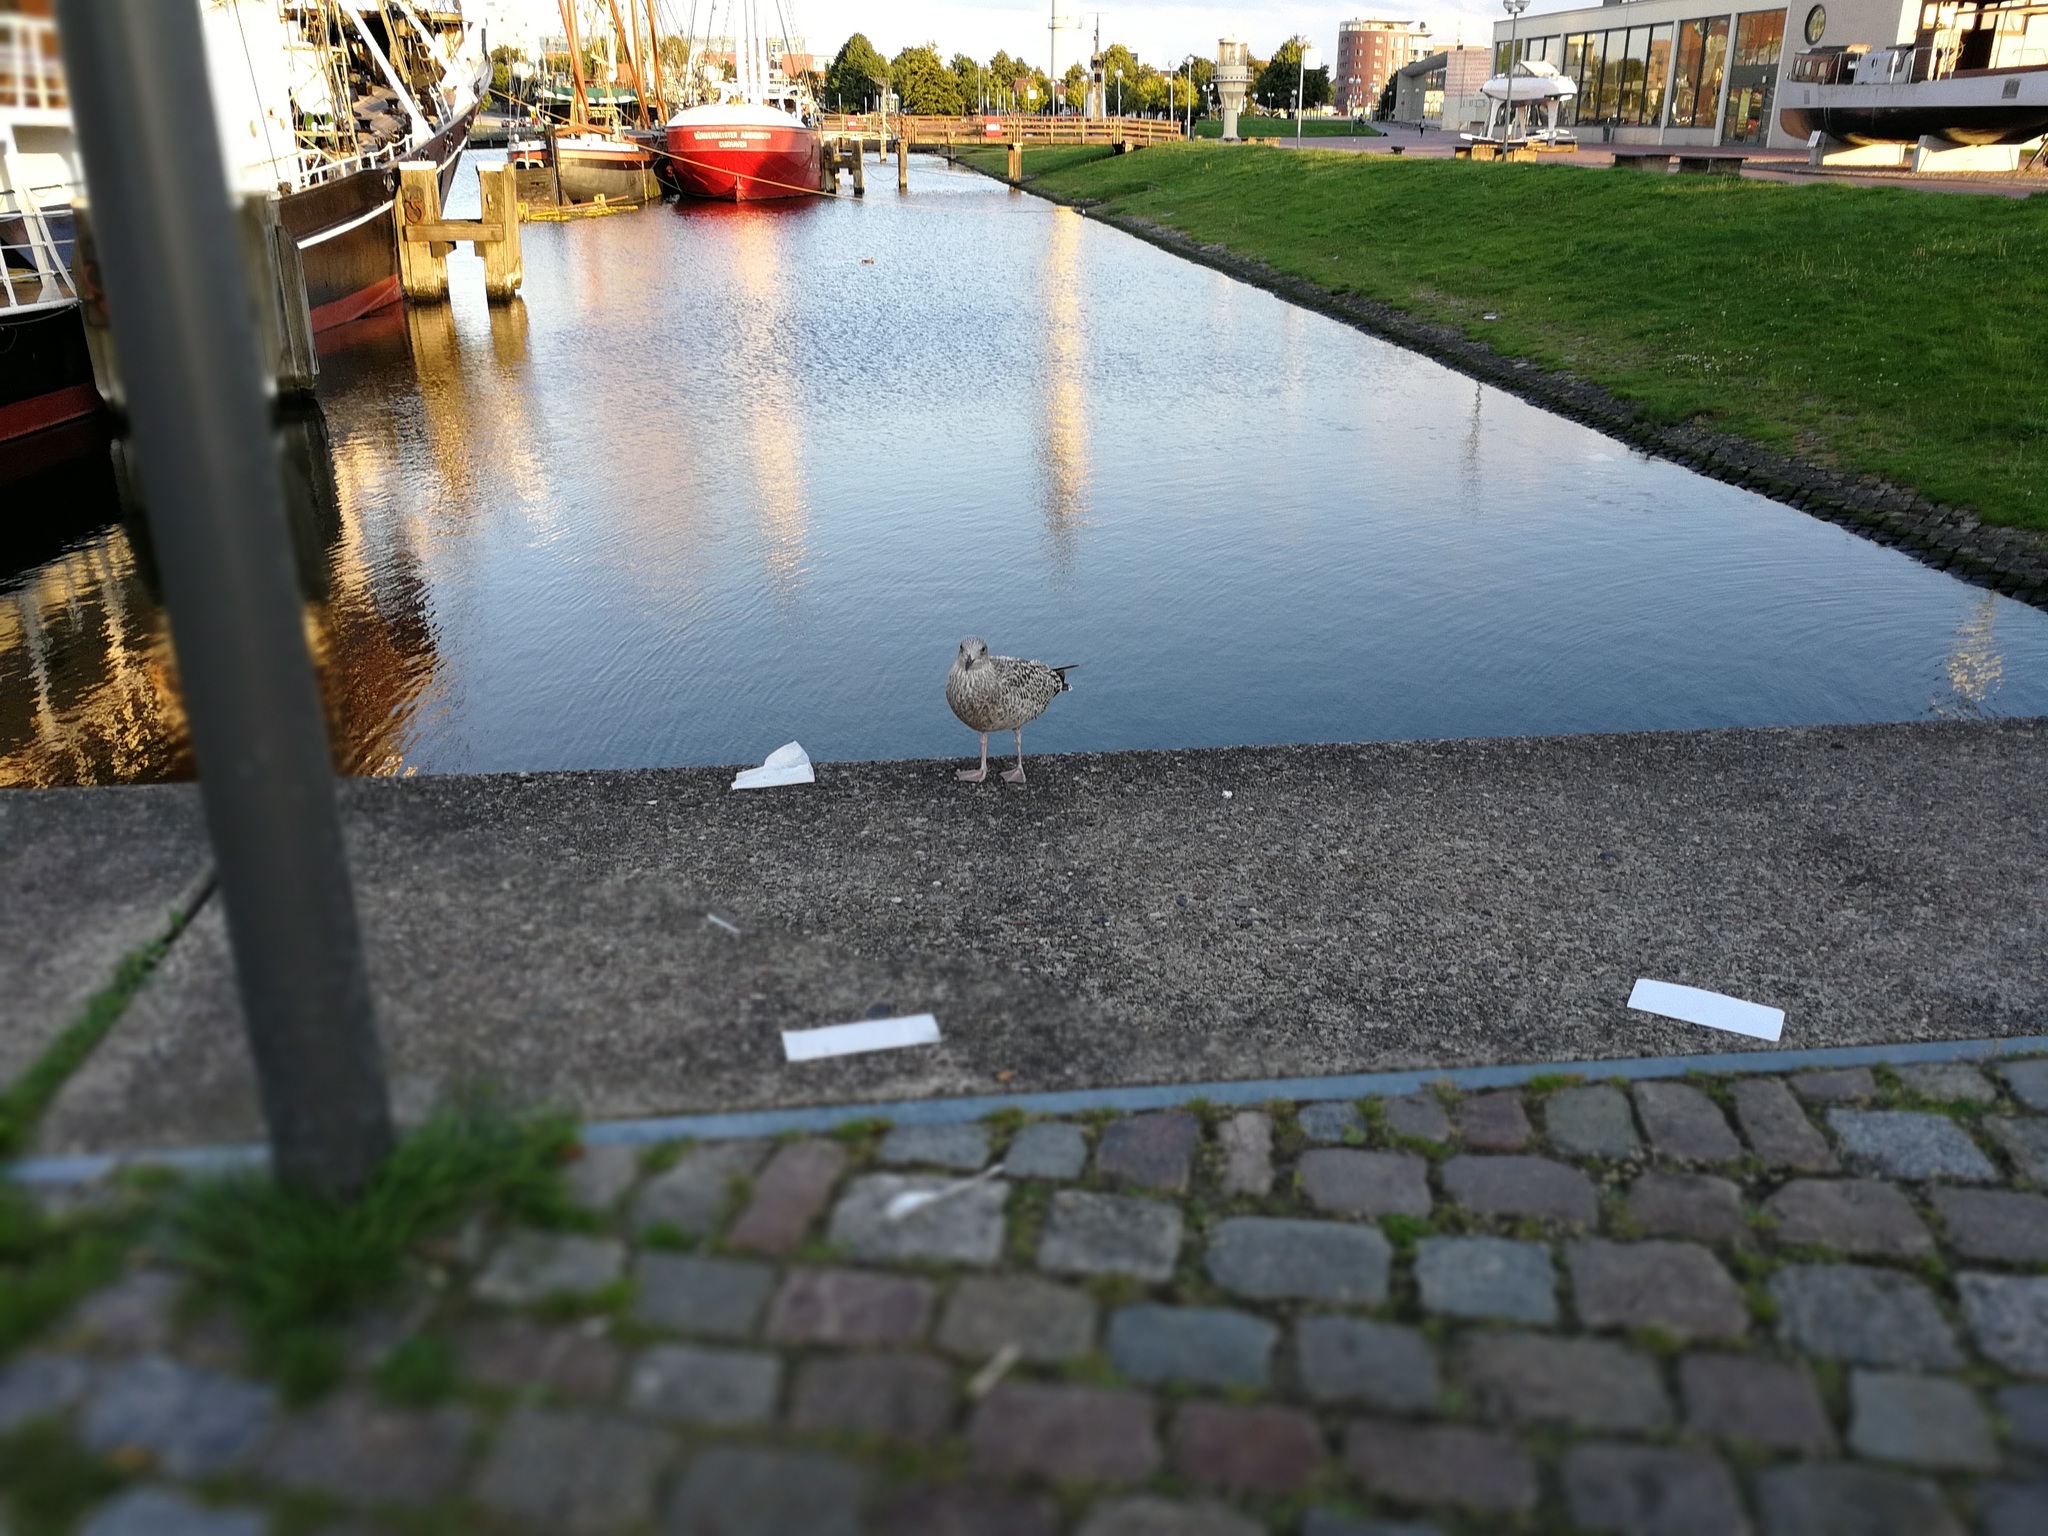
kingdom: Animalia
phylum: Chordata
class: Aves
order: Charadriiformes
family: Laridae
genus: Larus
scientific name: Larus argentatus
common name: Herring gull
